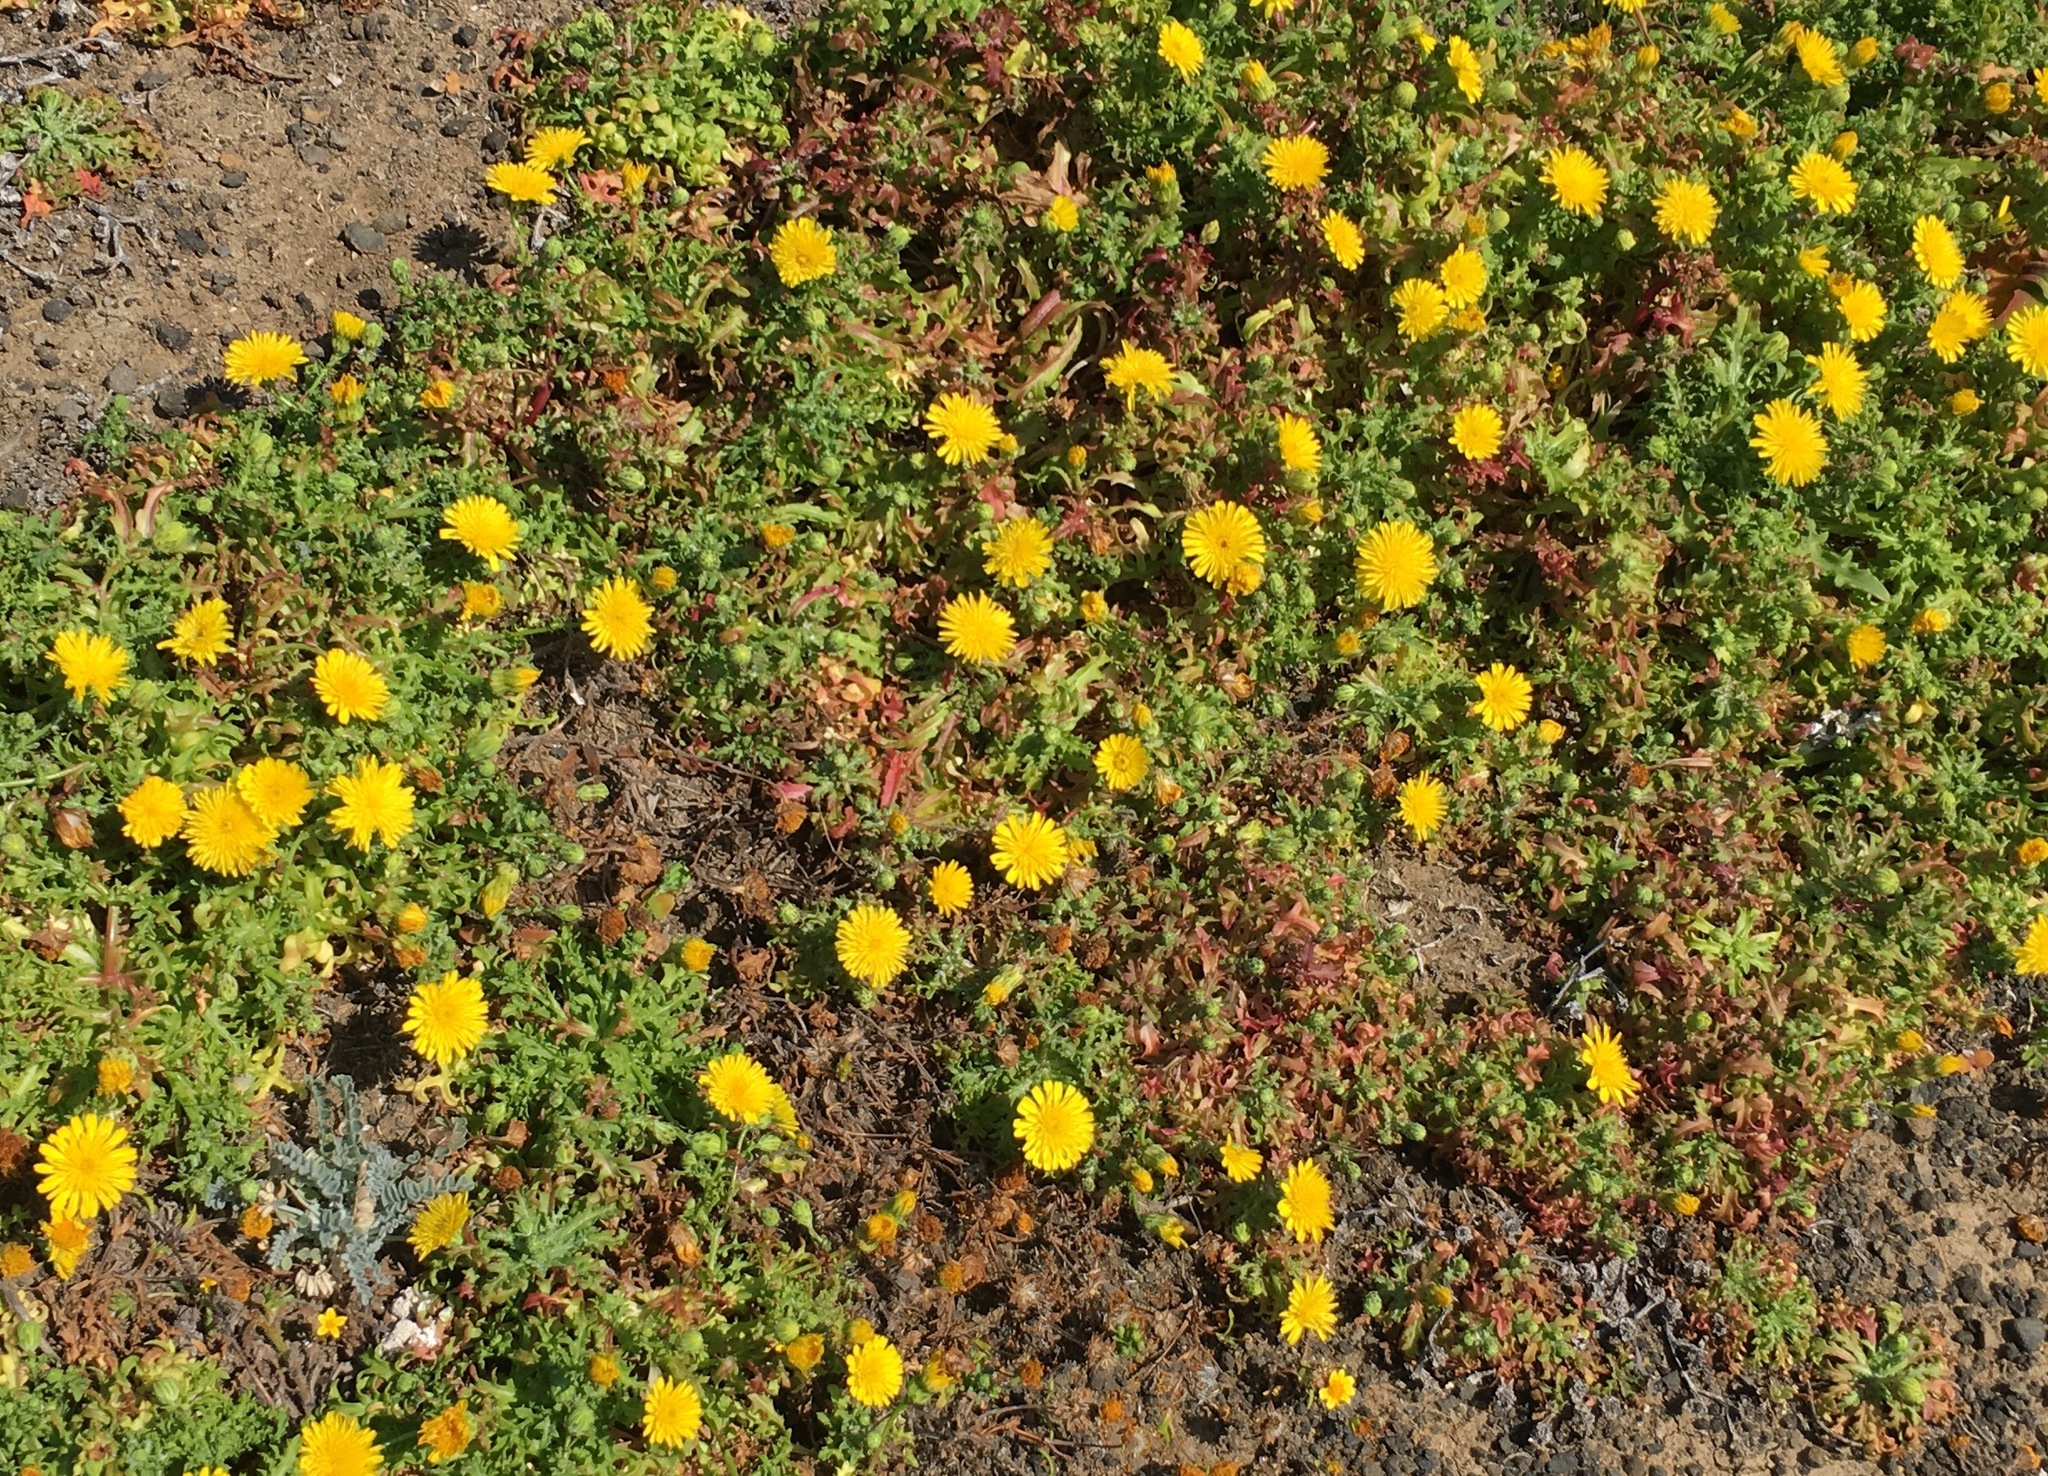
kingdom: Plantae
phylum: Tracheophyta
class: Magnoliopsida
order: Asterales
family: Asteraceae
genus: Malacothrix
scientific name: Malacothrix foliosa
